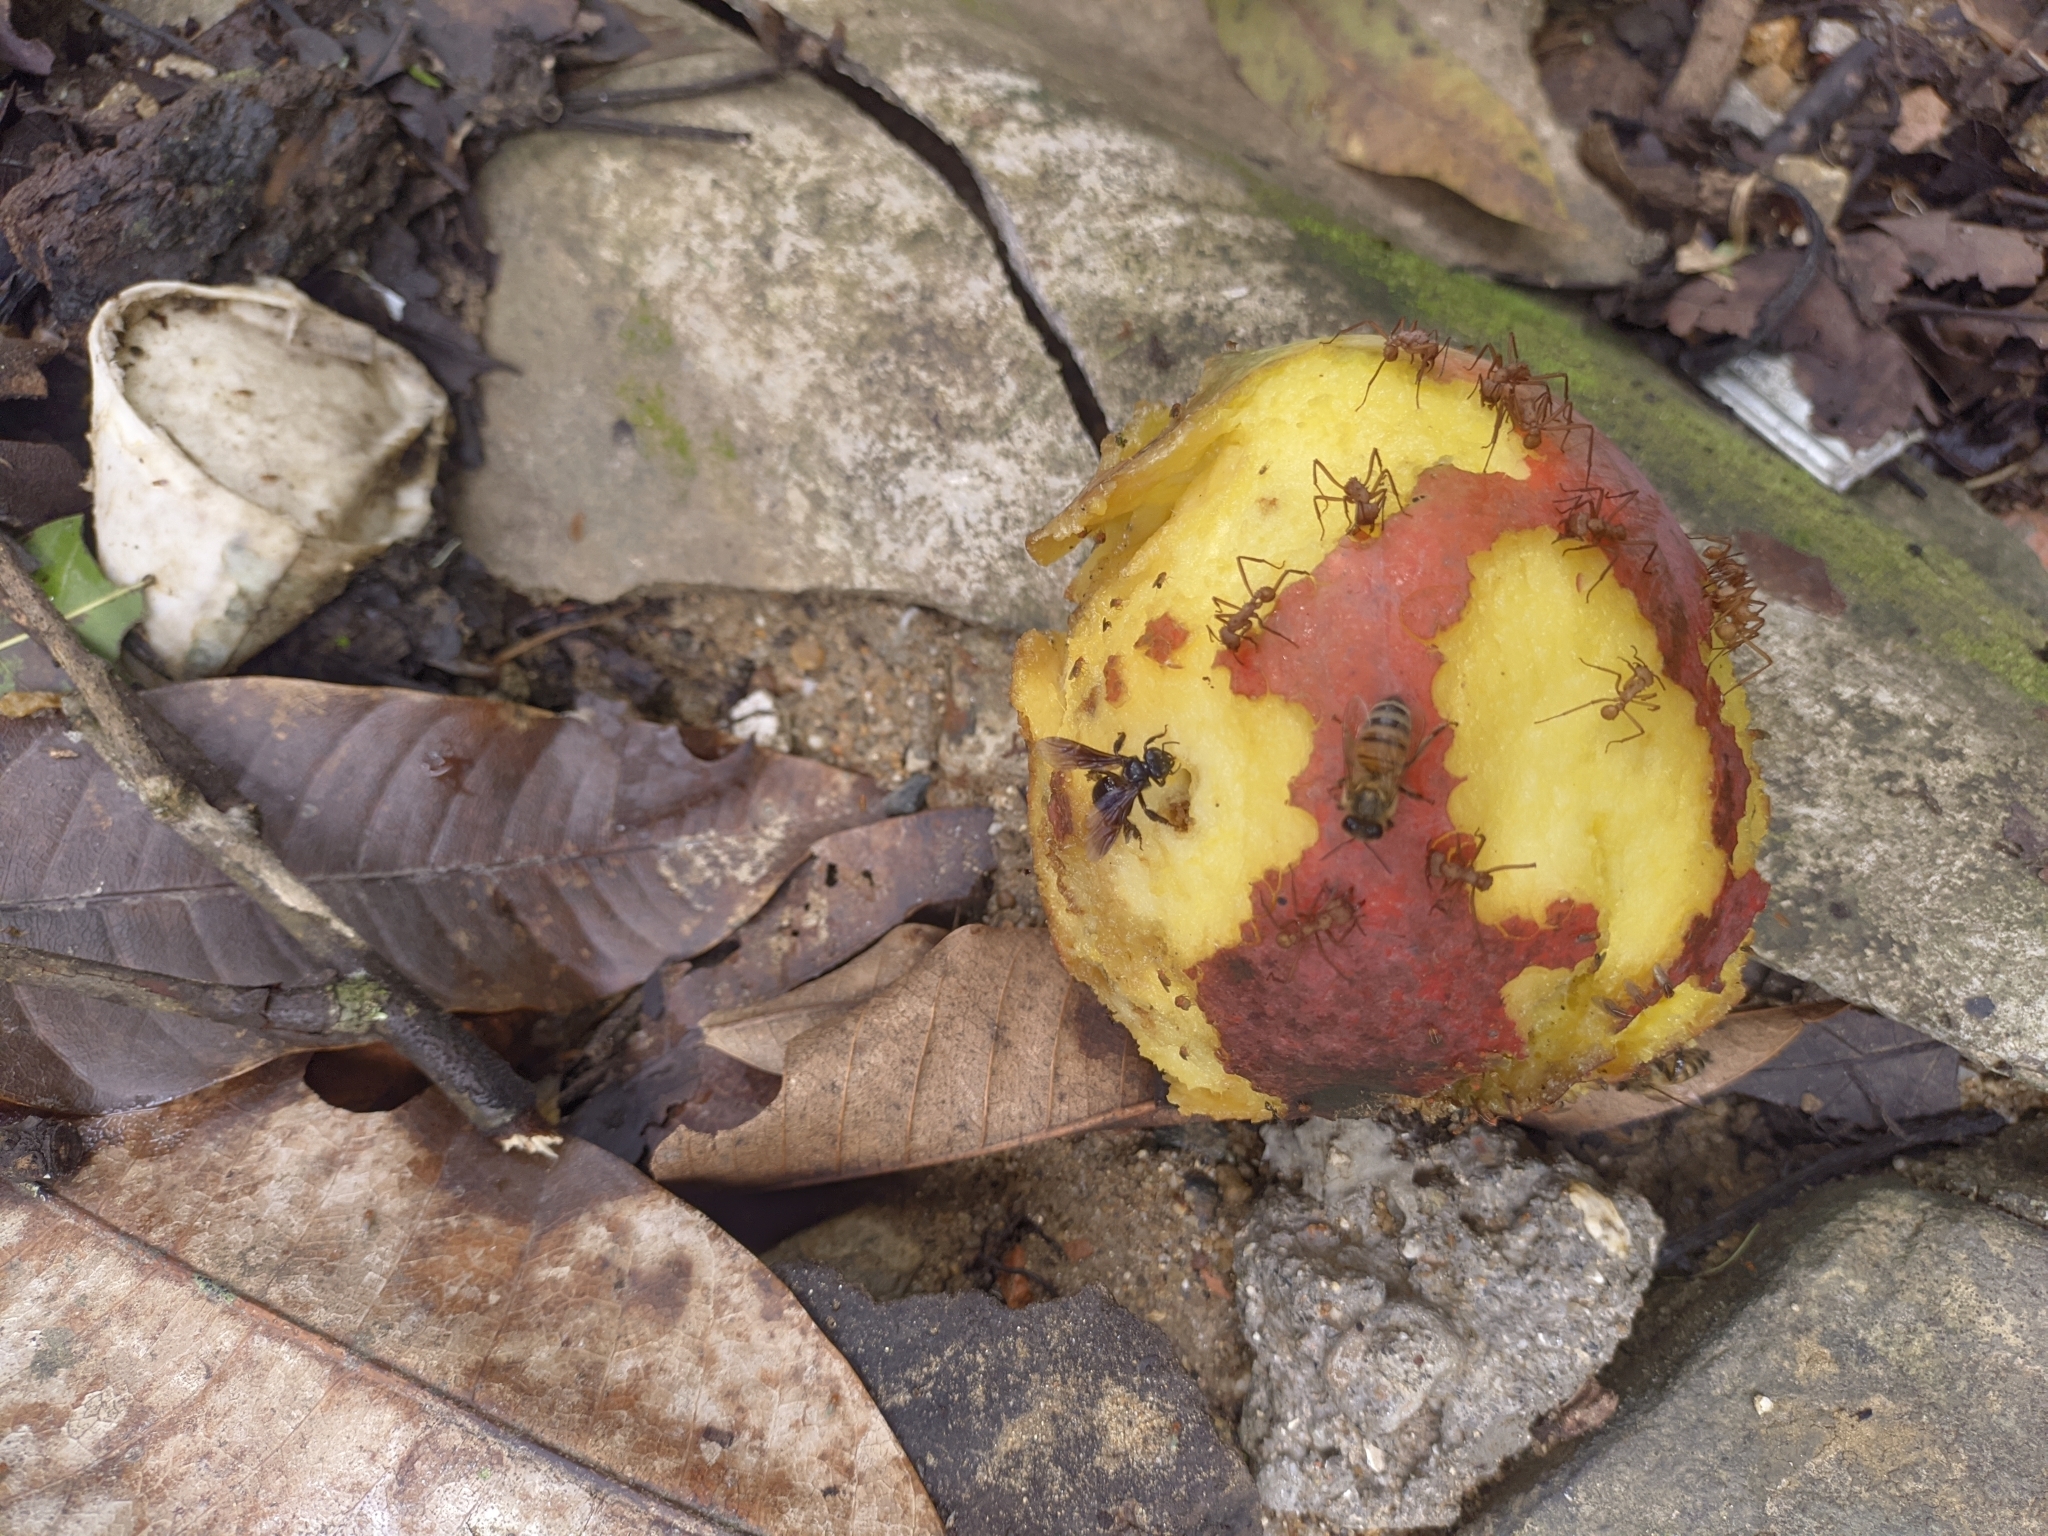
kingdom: Animalia
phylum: Arthropoda
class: Insecta
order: Hymenoptera
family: Apidae
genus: Apis
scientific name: Apis mellifera
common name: Honey bee
